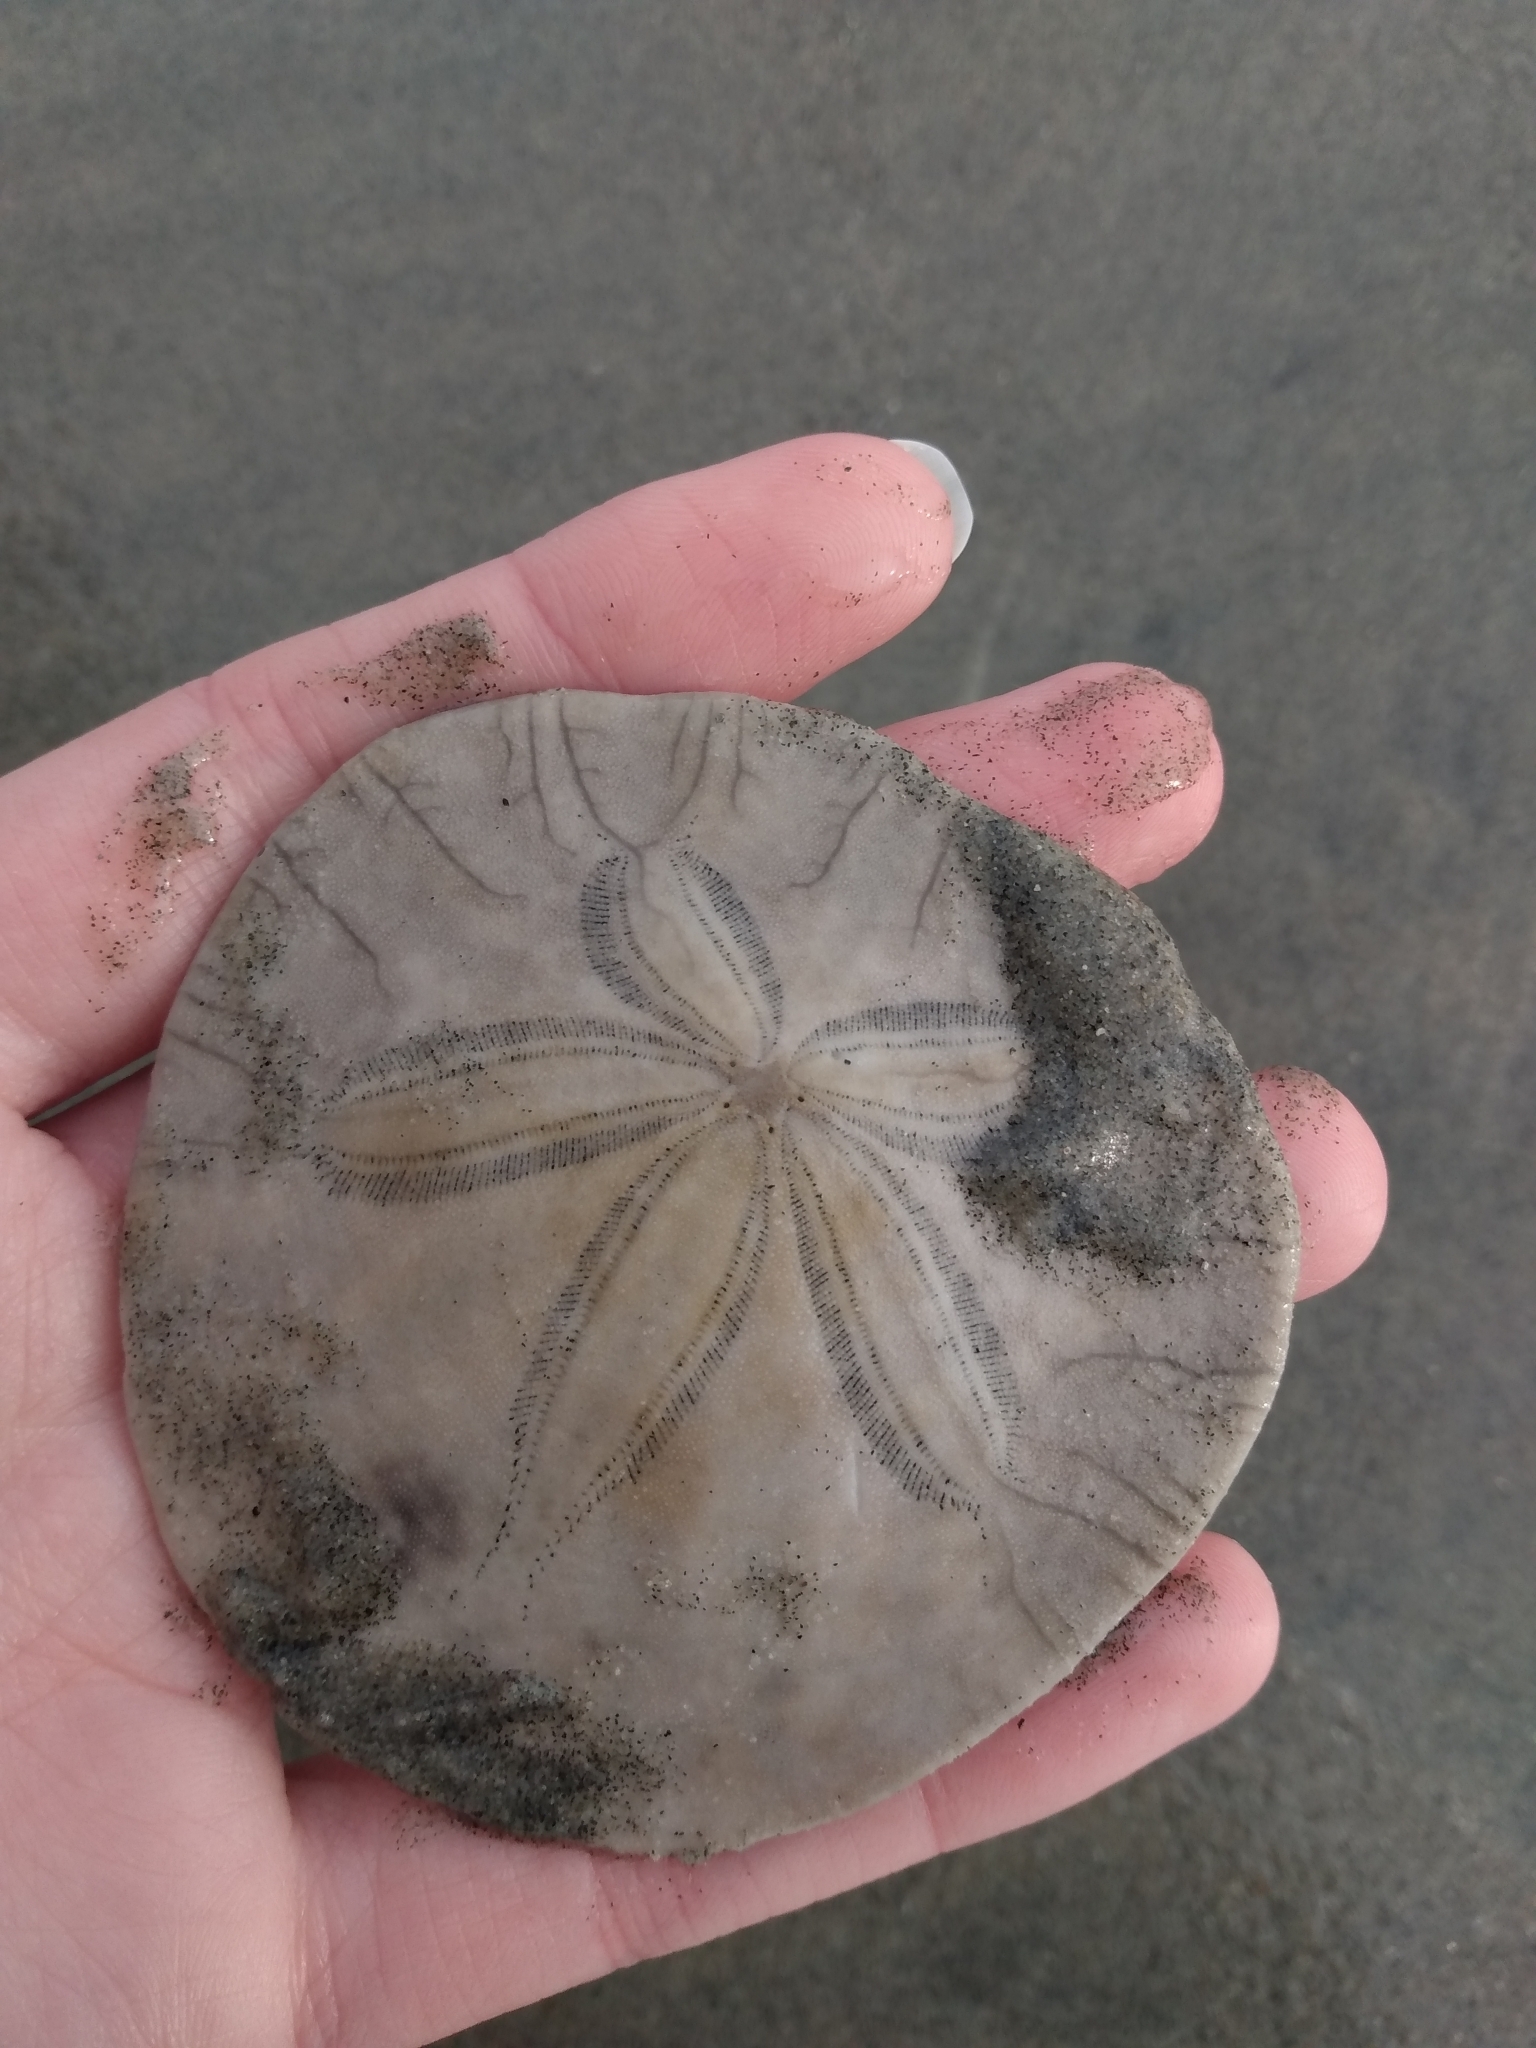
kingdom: Animalia
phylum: Echinodermata
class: Echinoidea
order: Echinolampadacea
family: Dendrasteridae
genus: Dendraster
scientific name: Dendraster excentricus
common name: Eccentric sand dollar sea urchin
